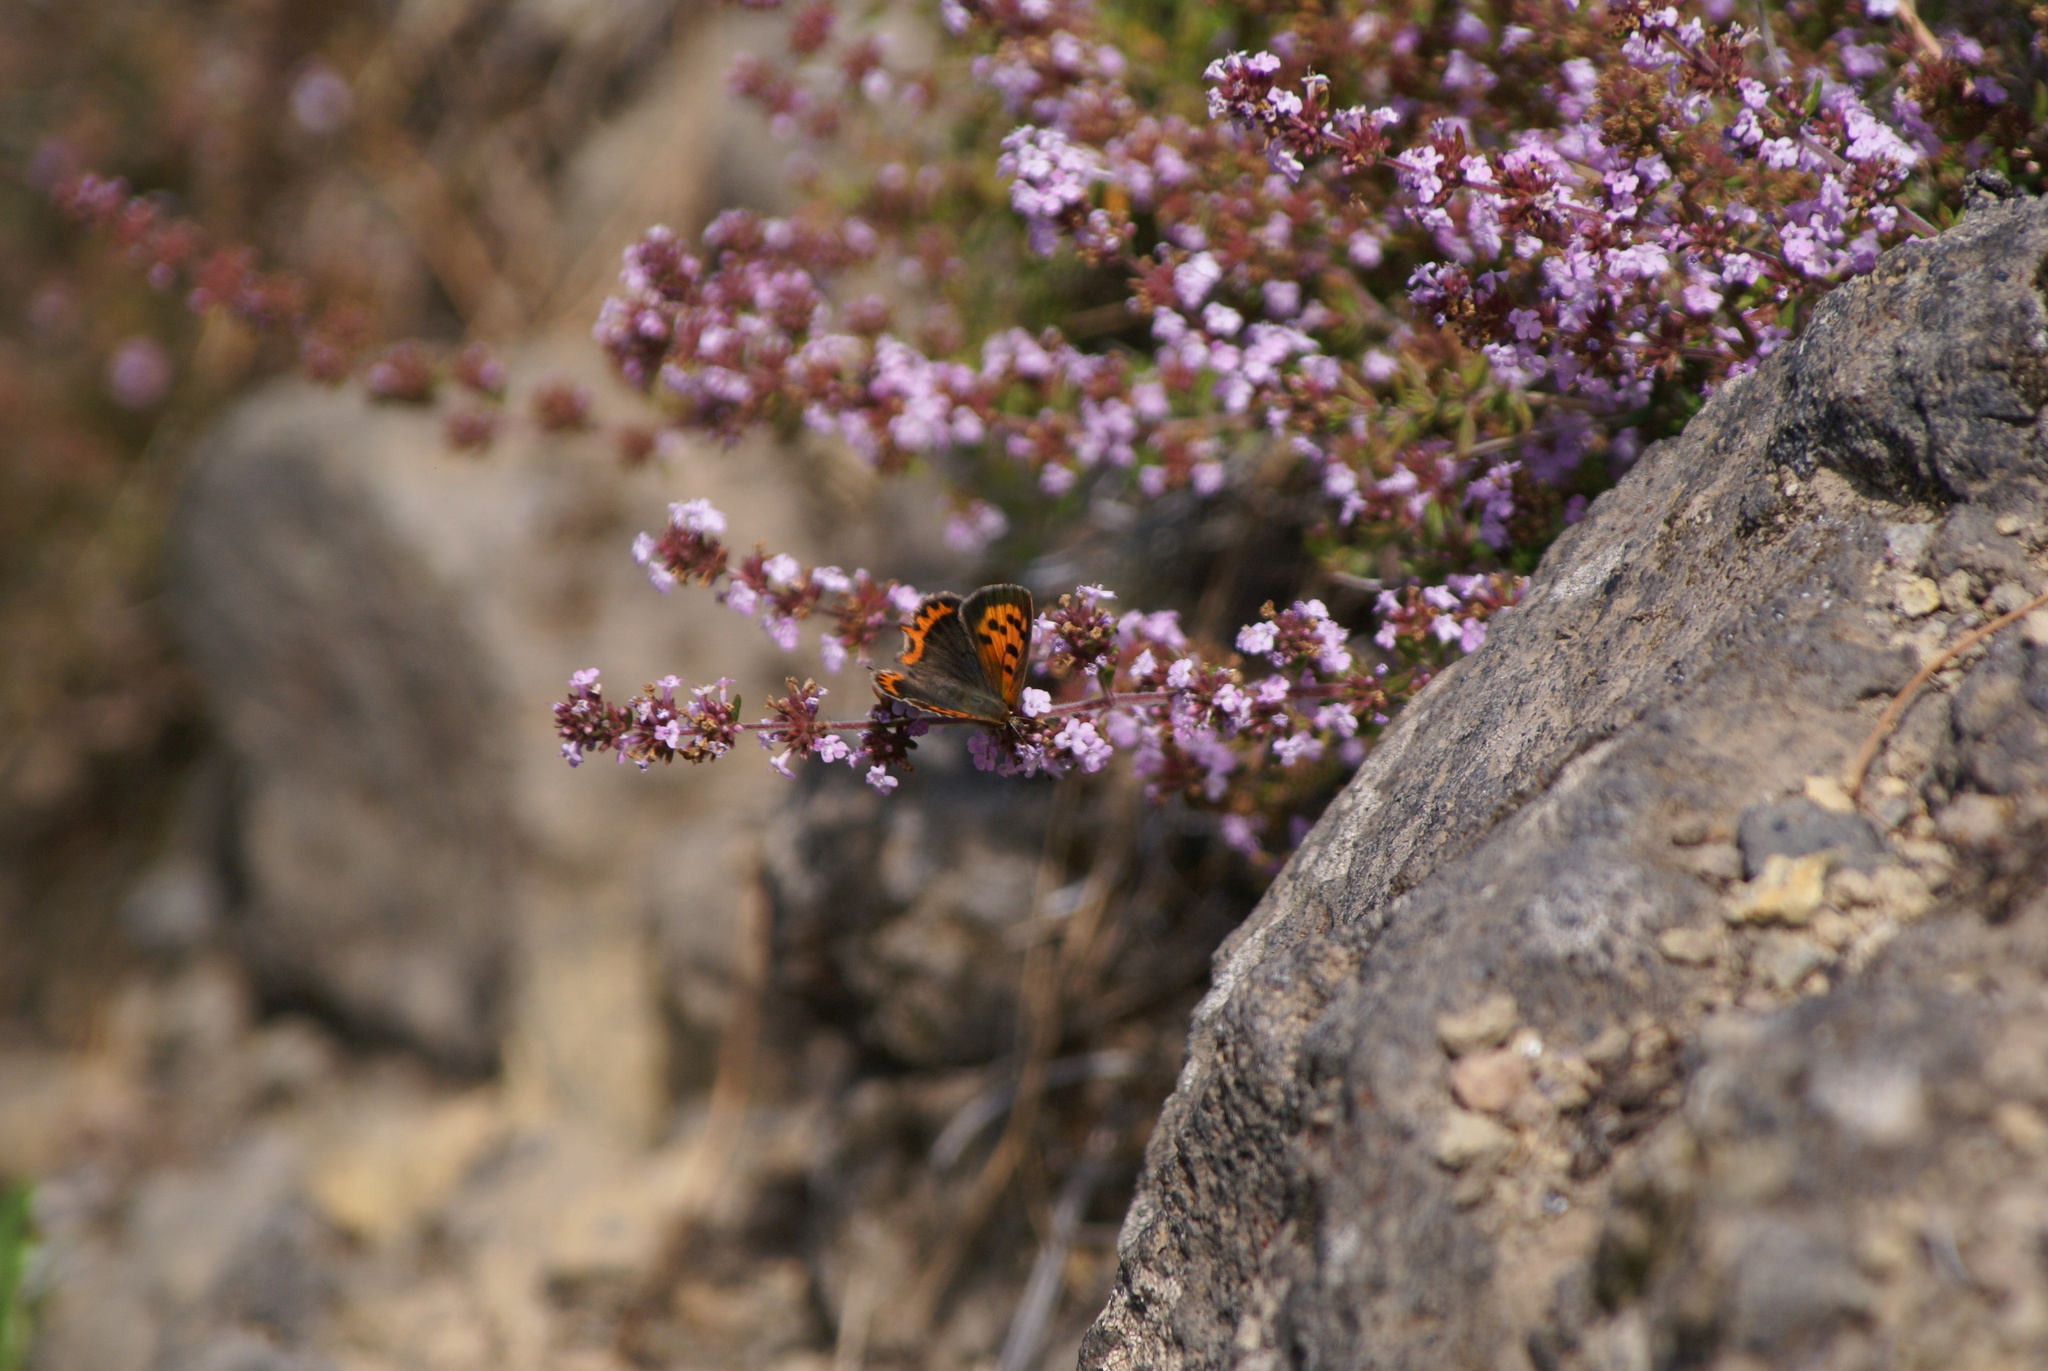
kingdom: Animalia
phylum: Arthropoda
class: Insecta
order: Lepidoptera
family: Lycaenidae
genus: Lycaena
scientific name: Lycaena phlaeas
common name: Small copper
